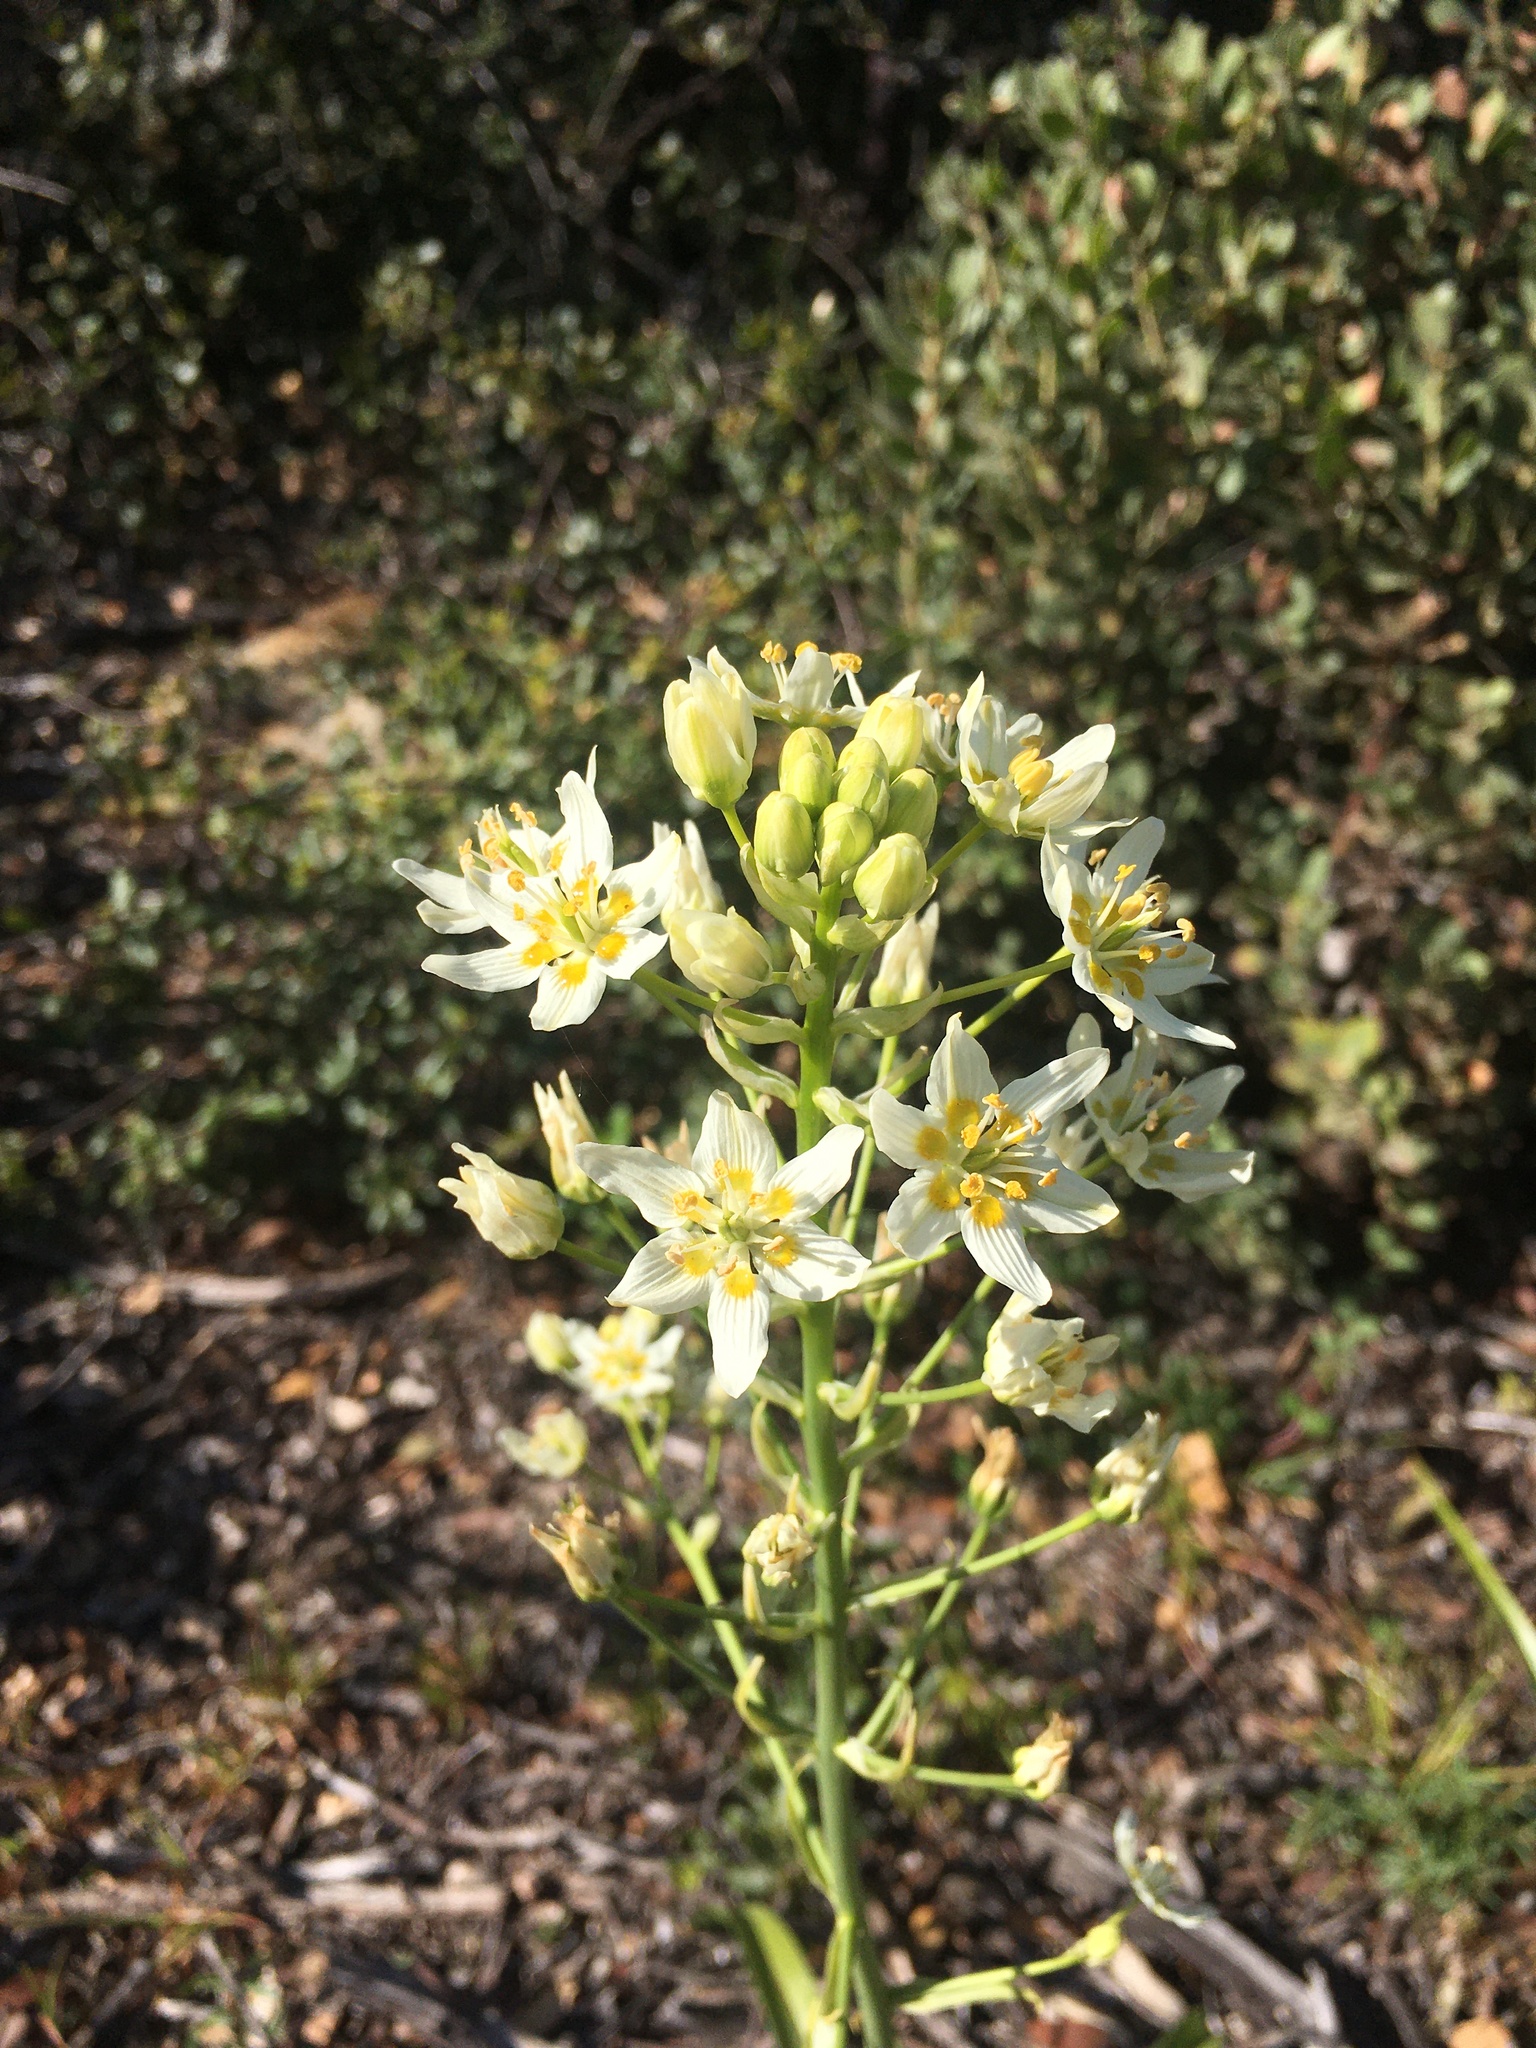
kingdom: Plantae
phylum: Tracheophyta
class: Liliopsida
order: Liliales
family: Melanthiaceae
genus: Toxicoscordion
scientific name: Toxicoscordion fremontii
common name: Fremont's death camas
